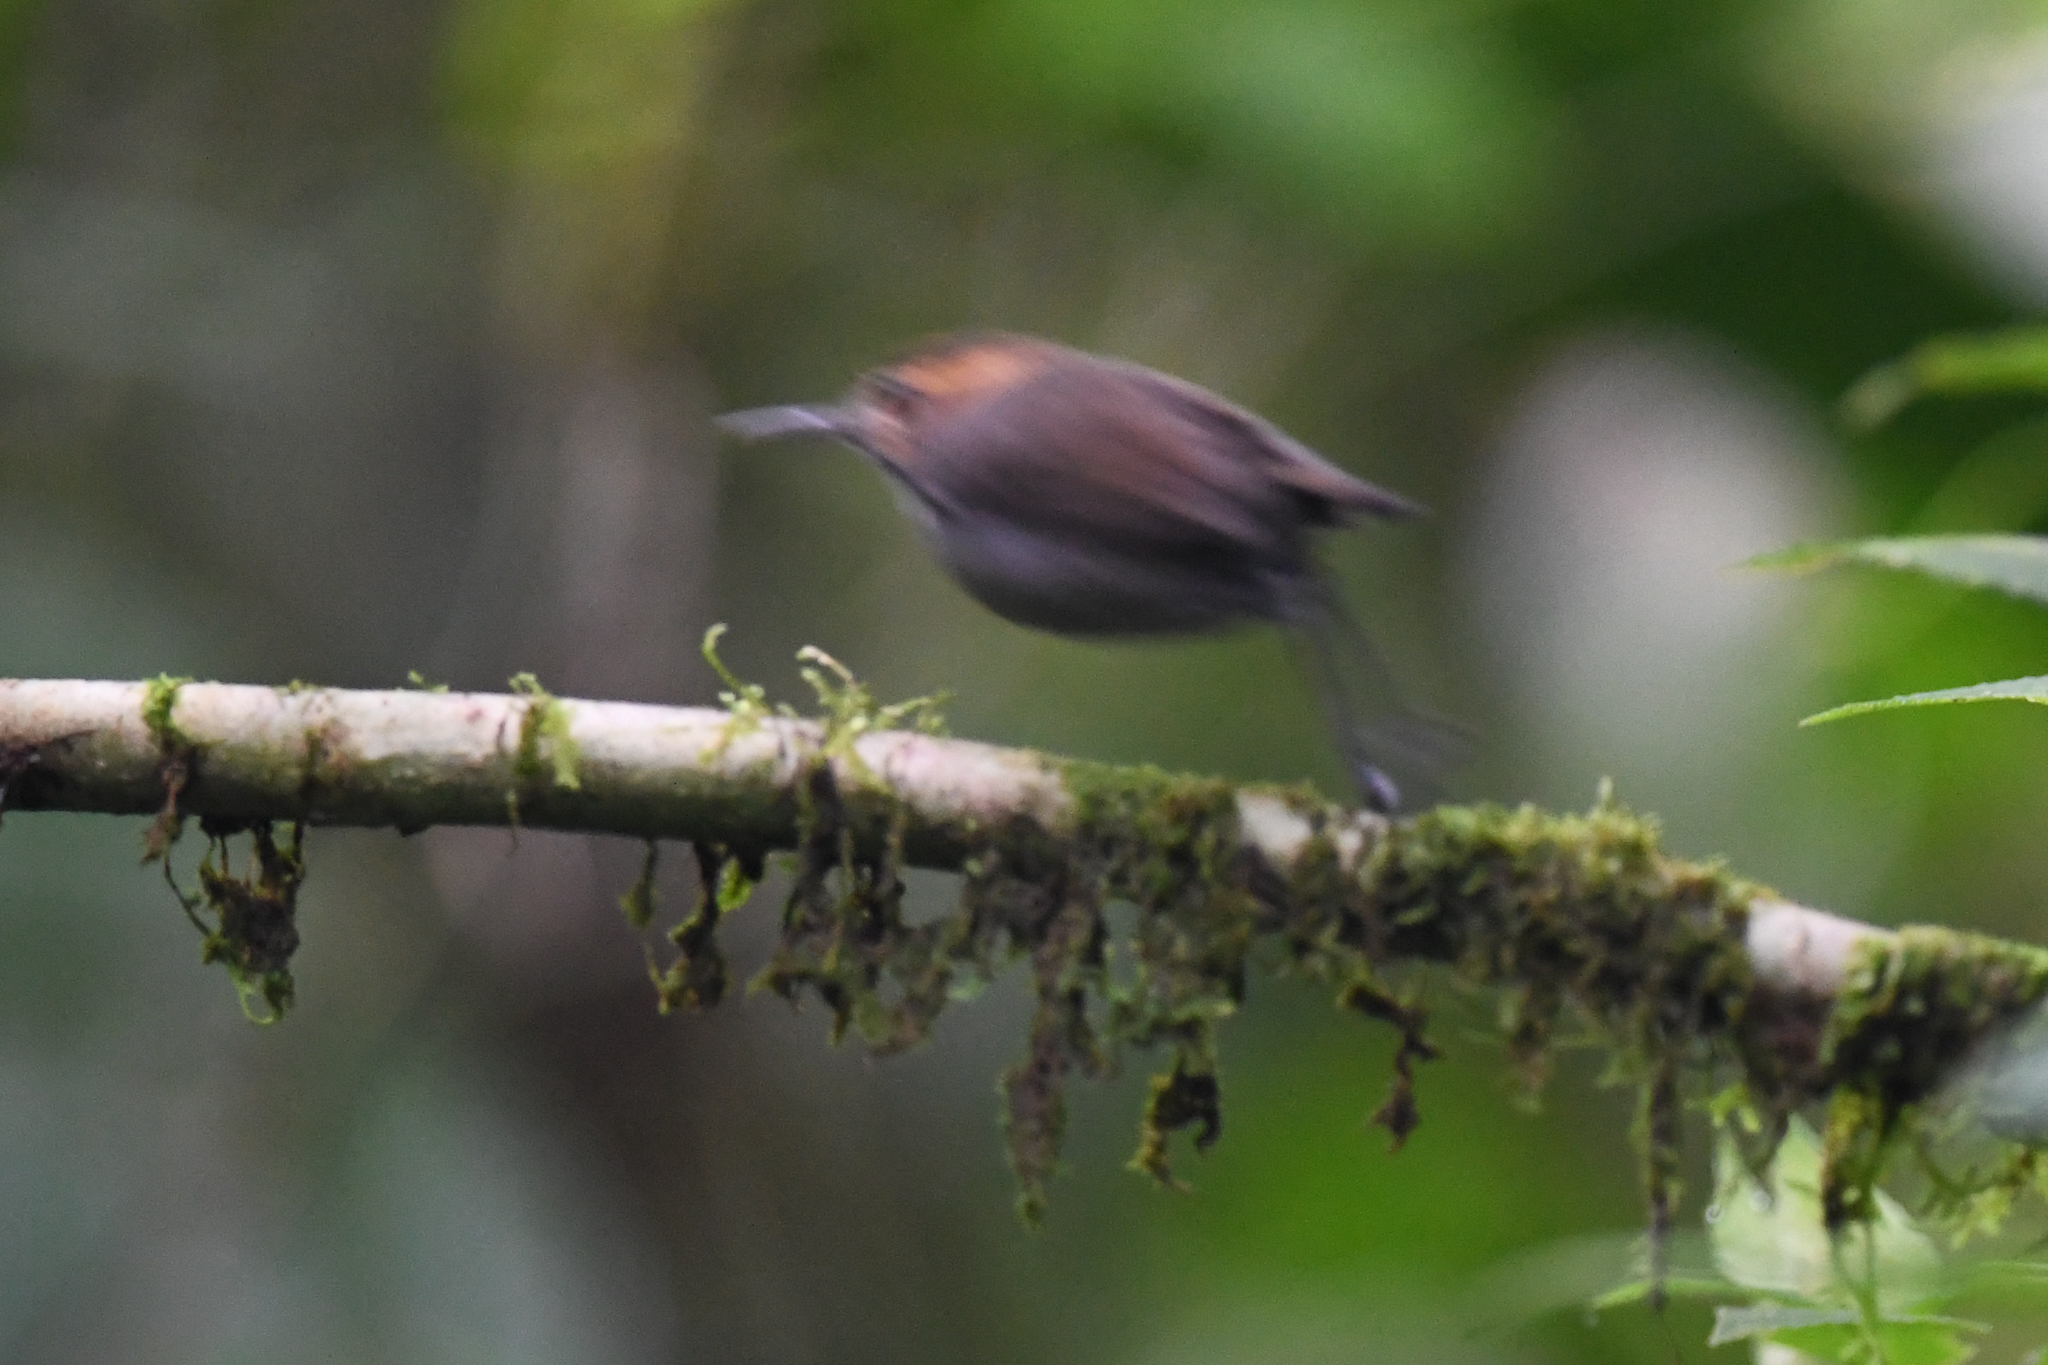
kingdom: Animalia
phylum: Chordata
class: Aves
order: Passeriformes
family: Polioptilidae
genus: Microbates
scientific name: Microbates cinereiventris
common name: Tawny-faced gnatwren
